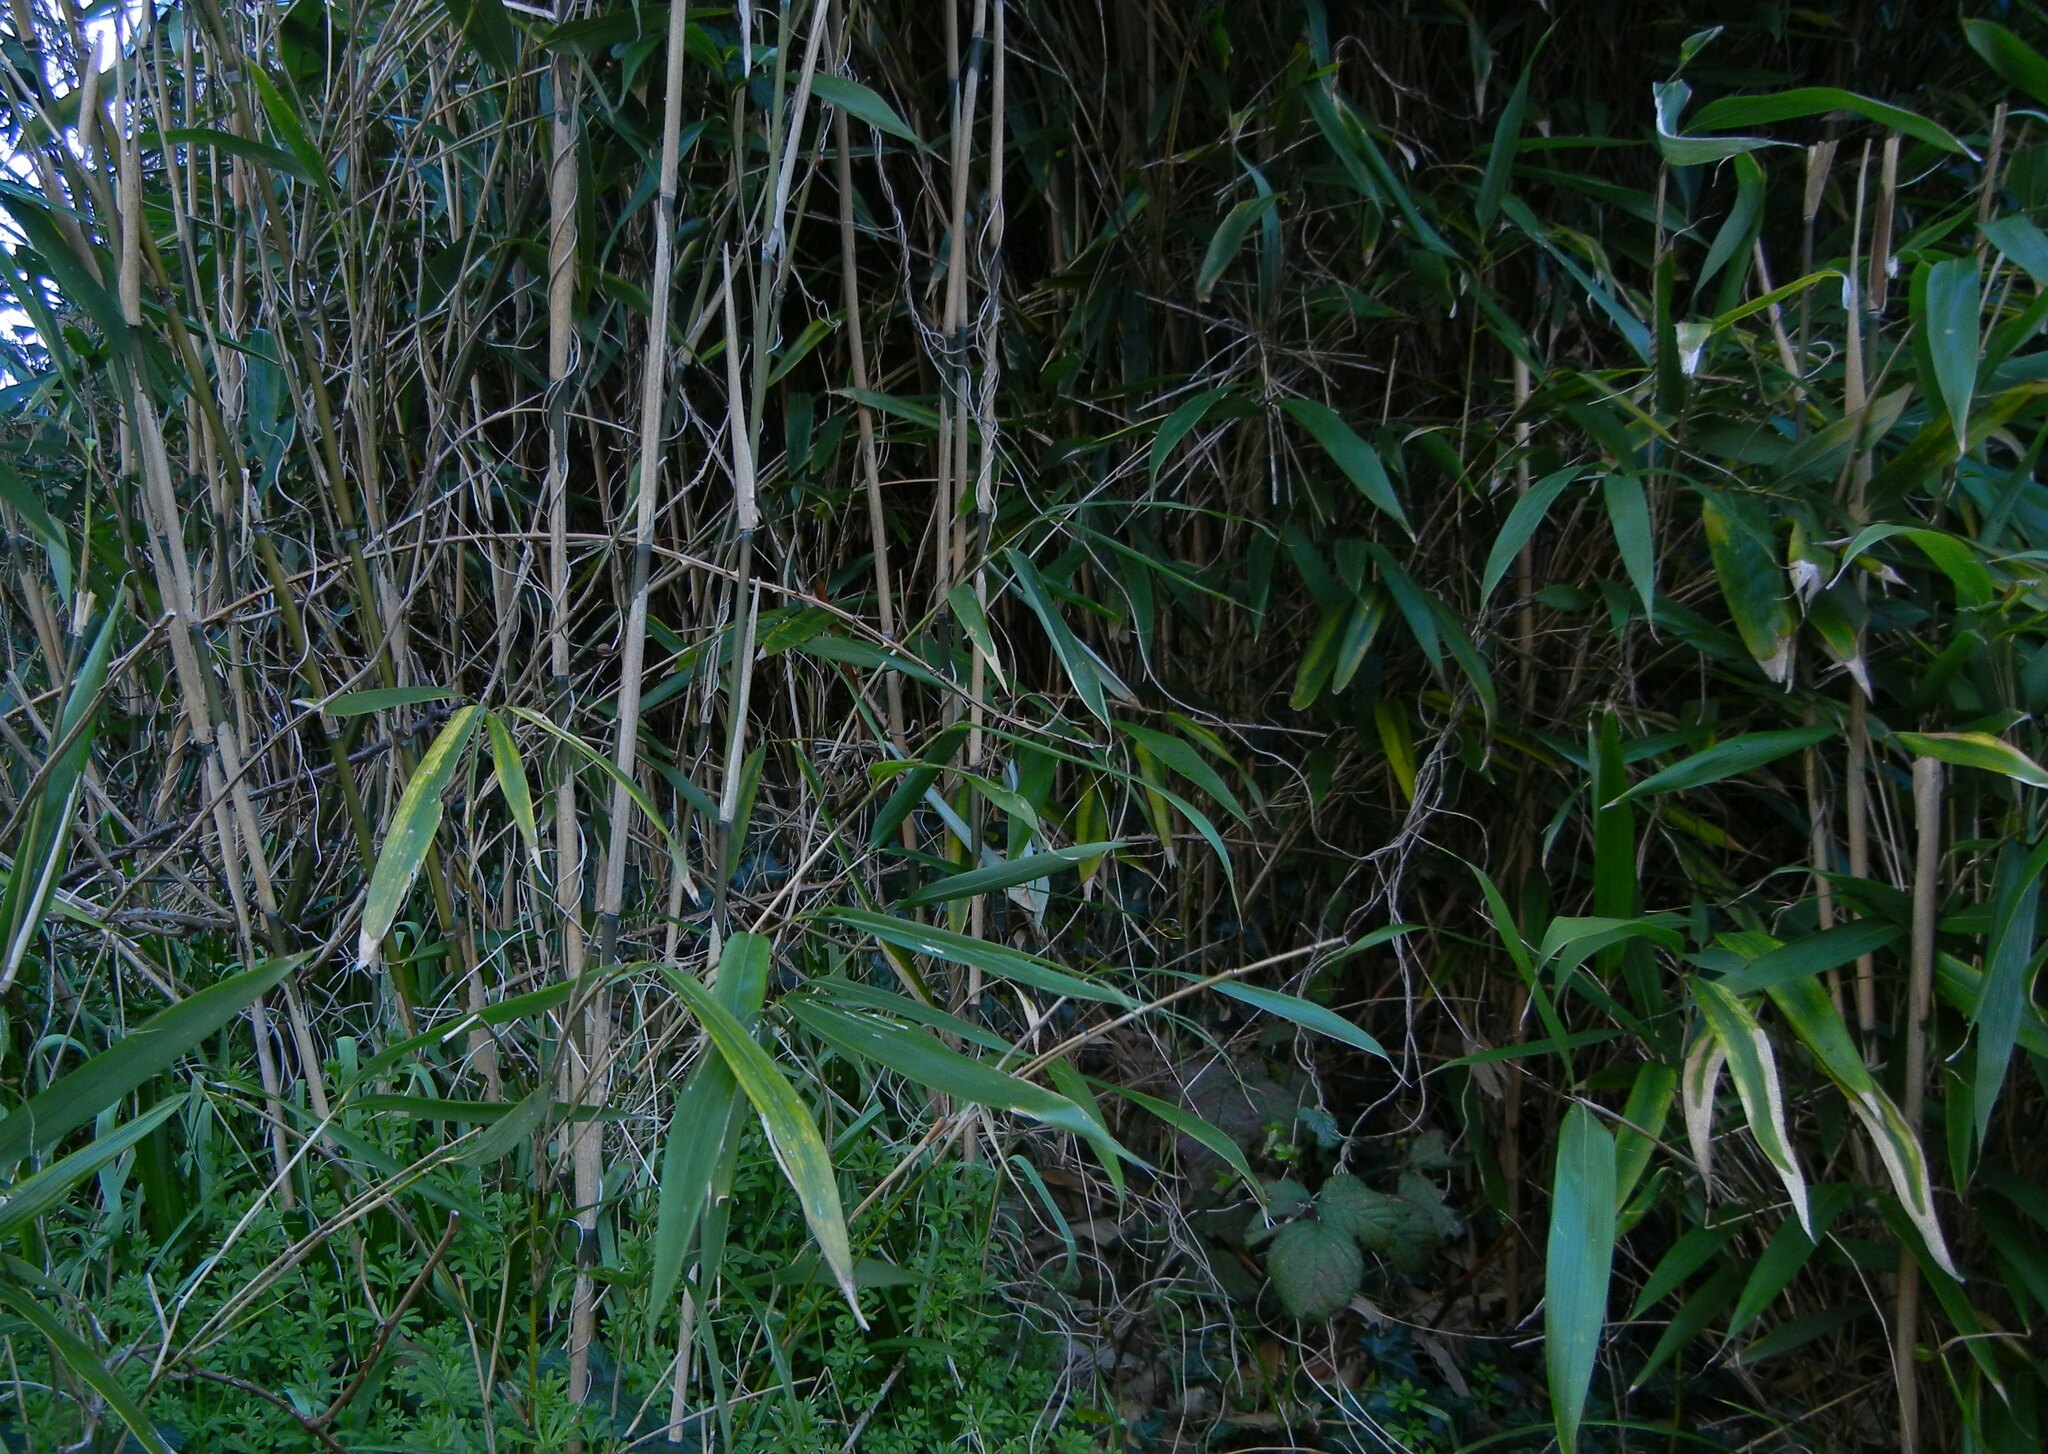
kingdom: Plantae
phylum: Tracheophyta
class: Liliopsida
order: Poales
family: Poaceae
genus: Pseudosasa
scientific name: Pseudosasa japonica
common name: Arrow bamboo
